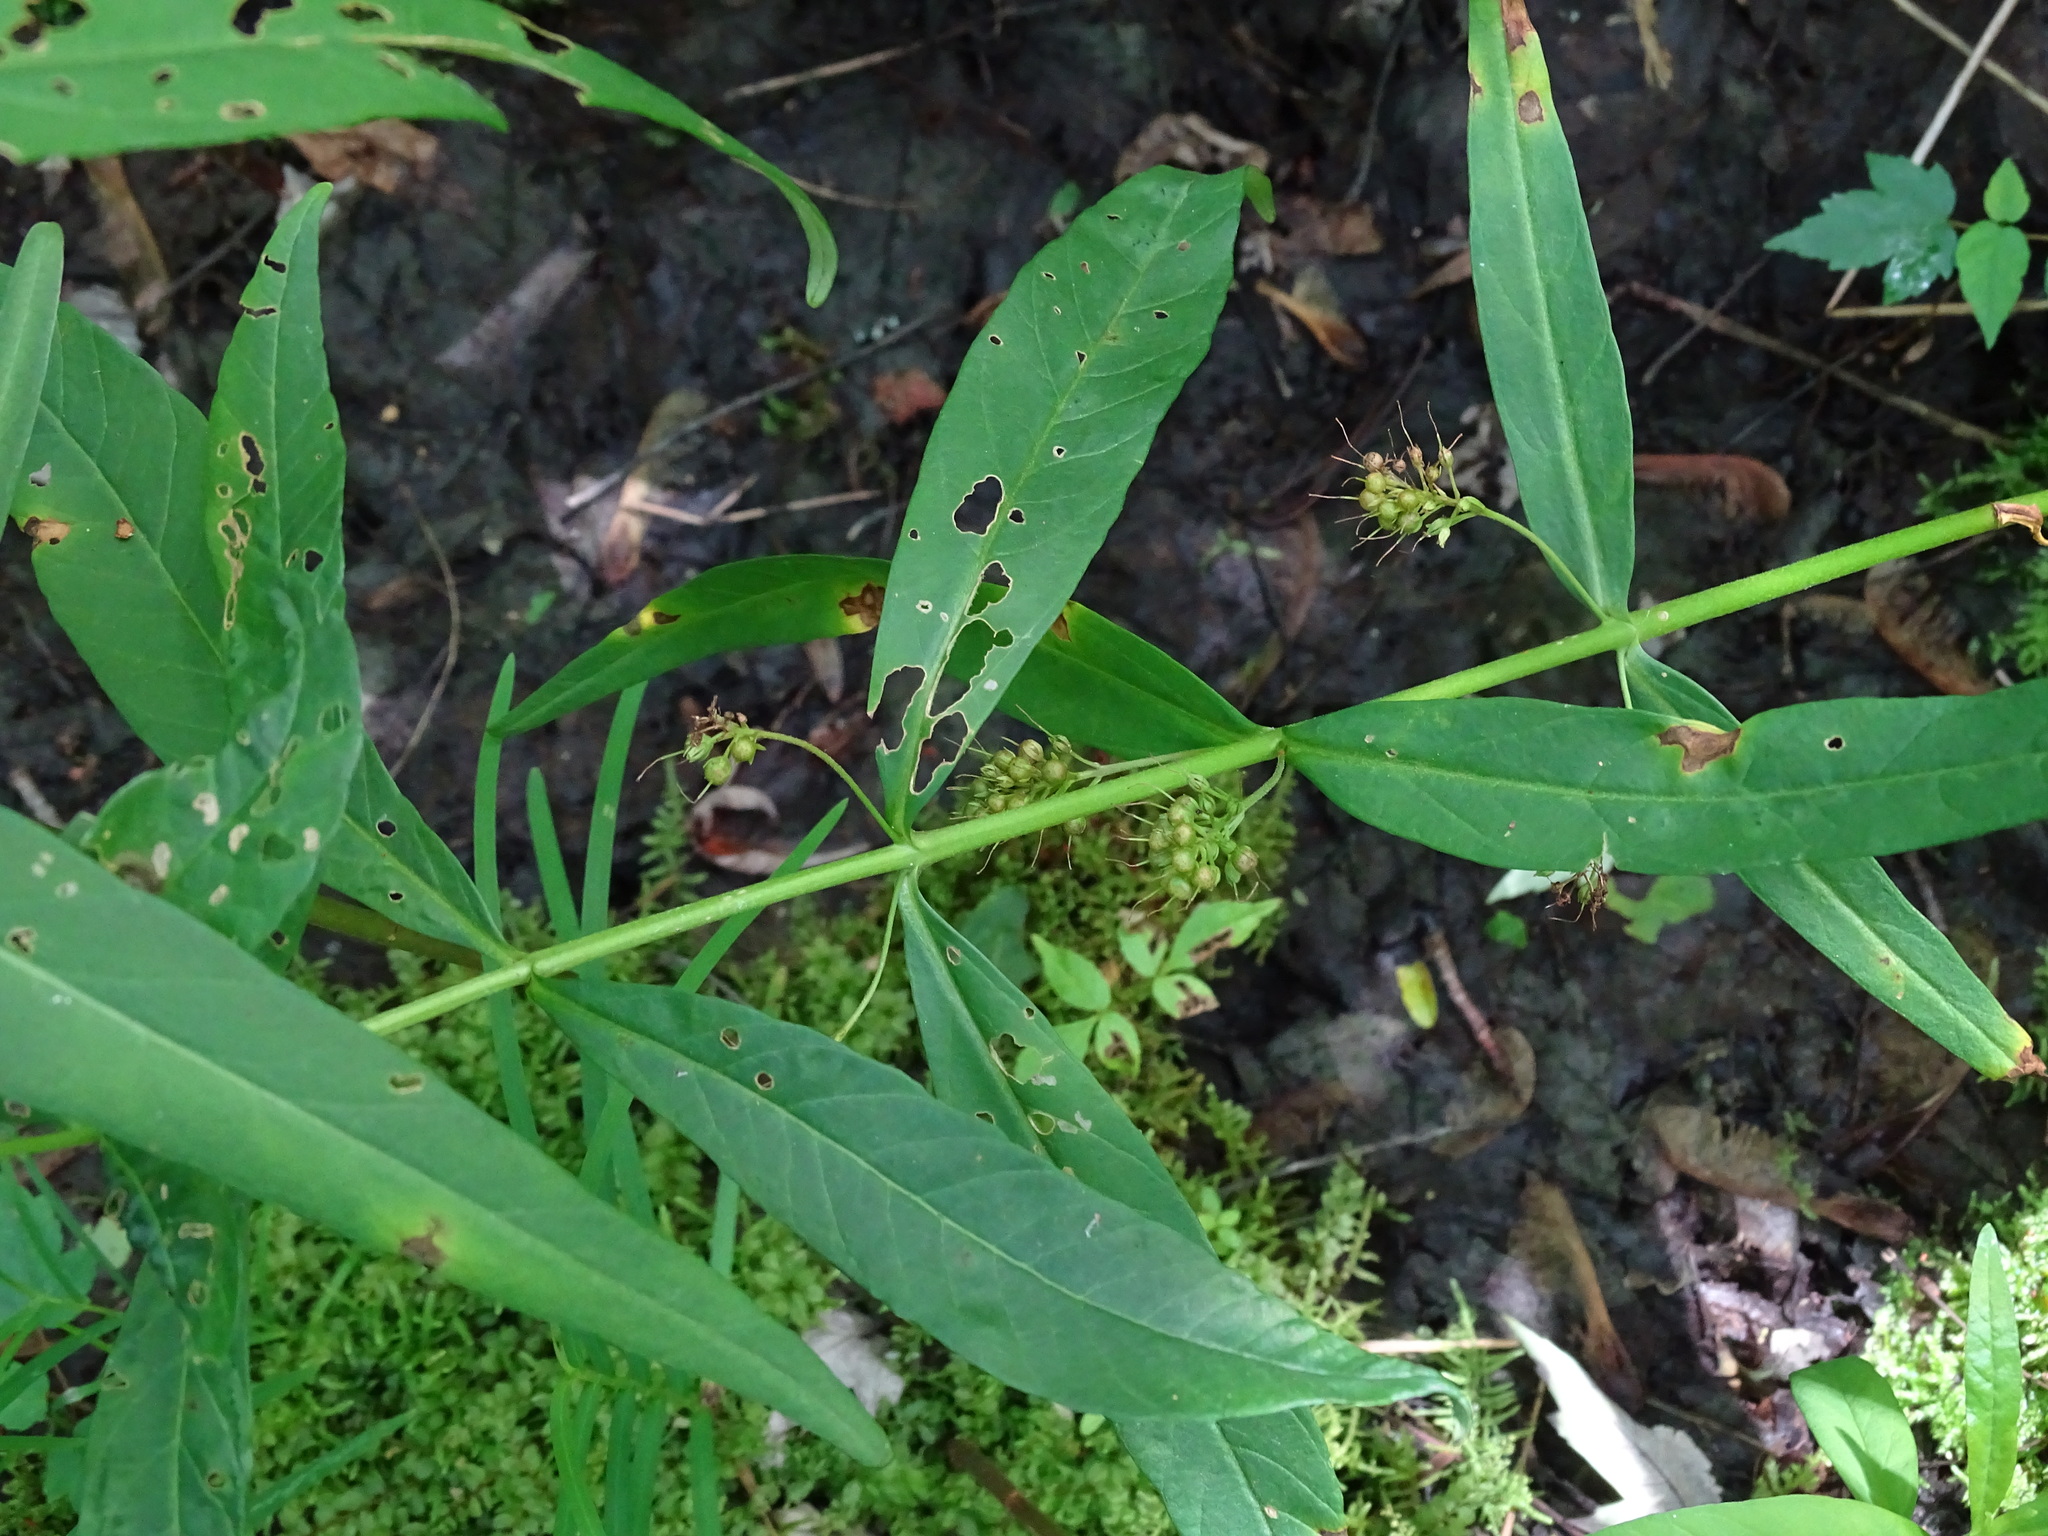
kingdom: Plantae
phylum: Tracheophyta
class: Magnoliopsida
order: Ericales
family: Primulaceae
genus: Lysimachia
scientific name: Lysimachia thyrsiflora
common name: Tufted loosestrife
